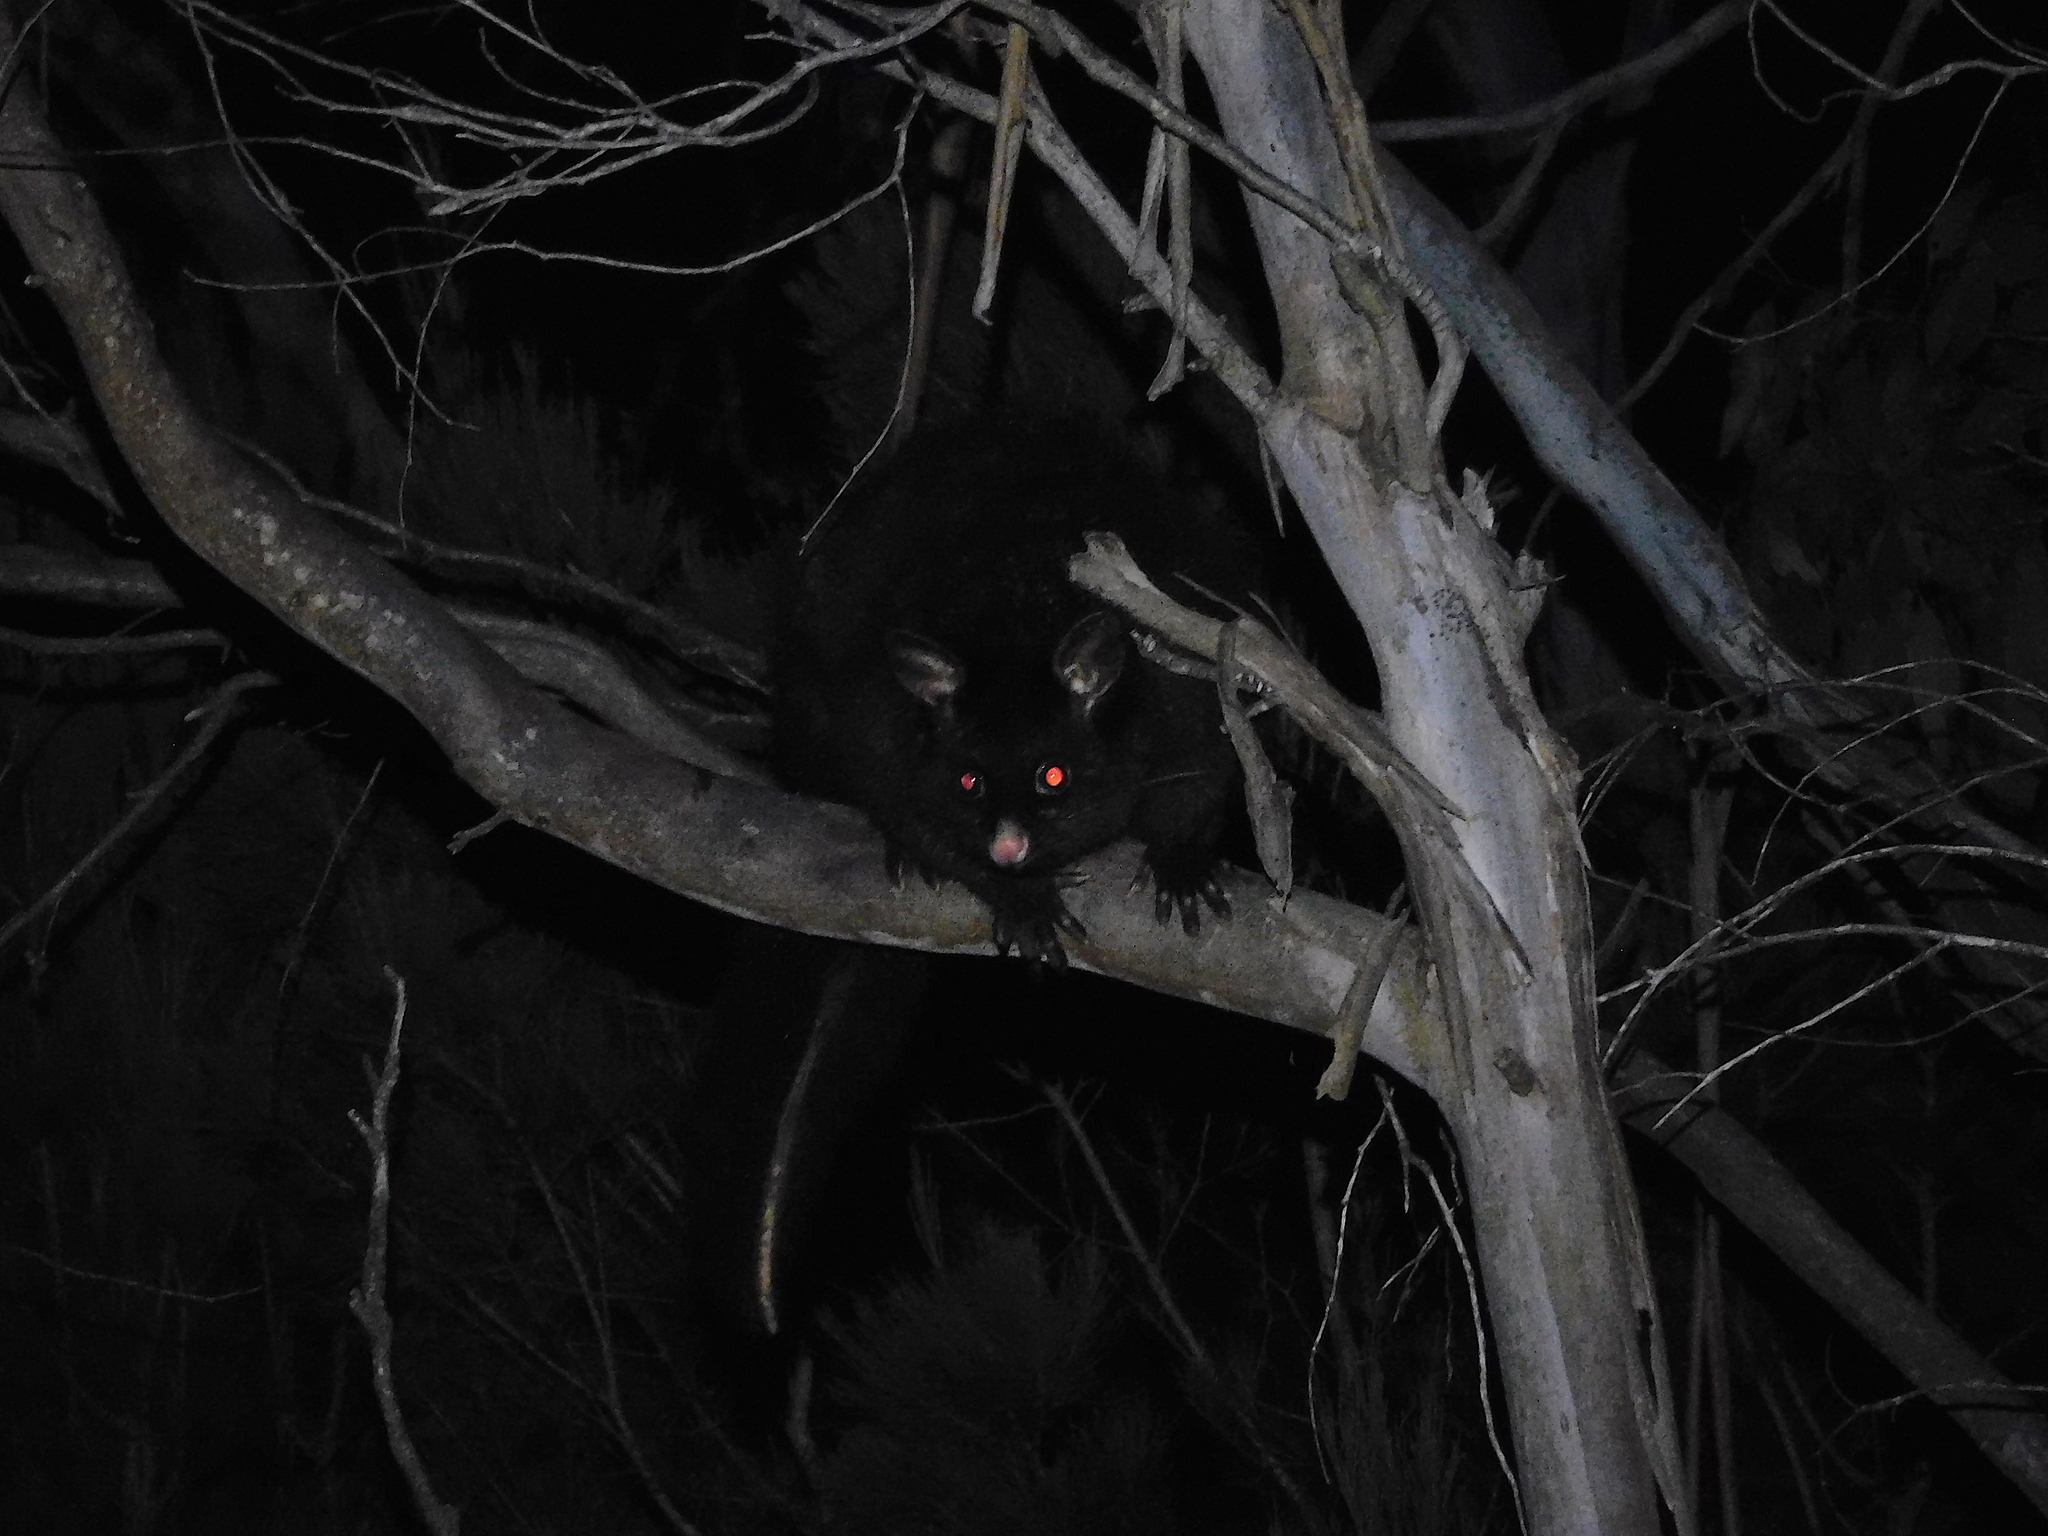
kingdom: Animalia
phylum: Chordata
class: Mammalia
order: Diprotodontia
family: Phalangeridae
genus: Trichosurus
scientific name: Trichosurus vulpecula
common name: Common brushtail
